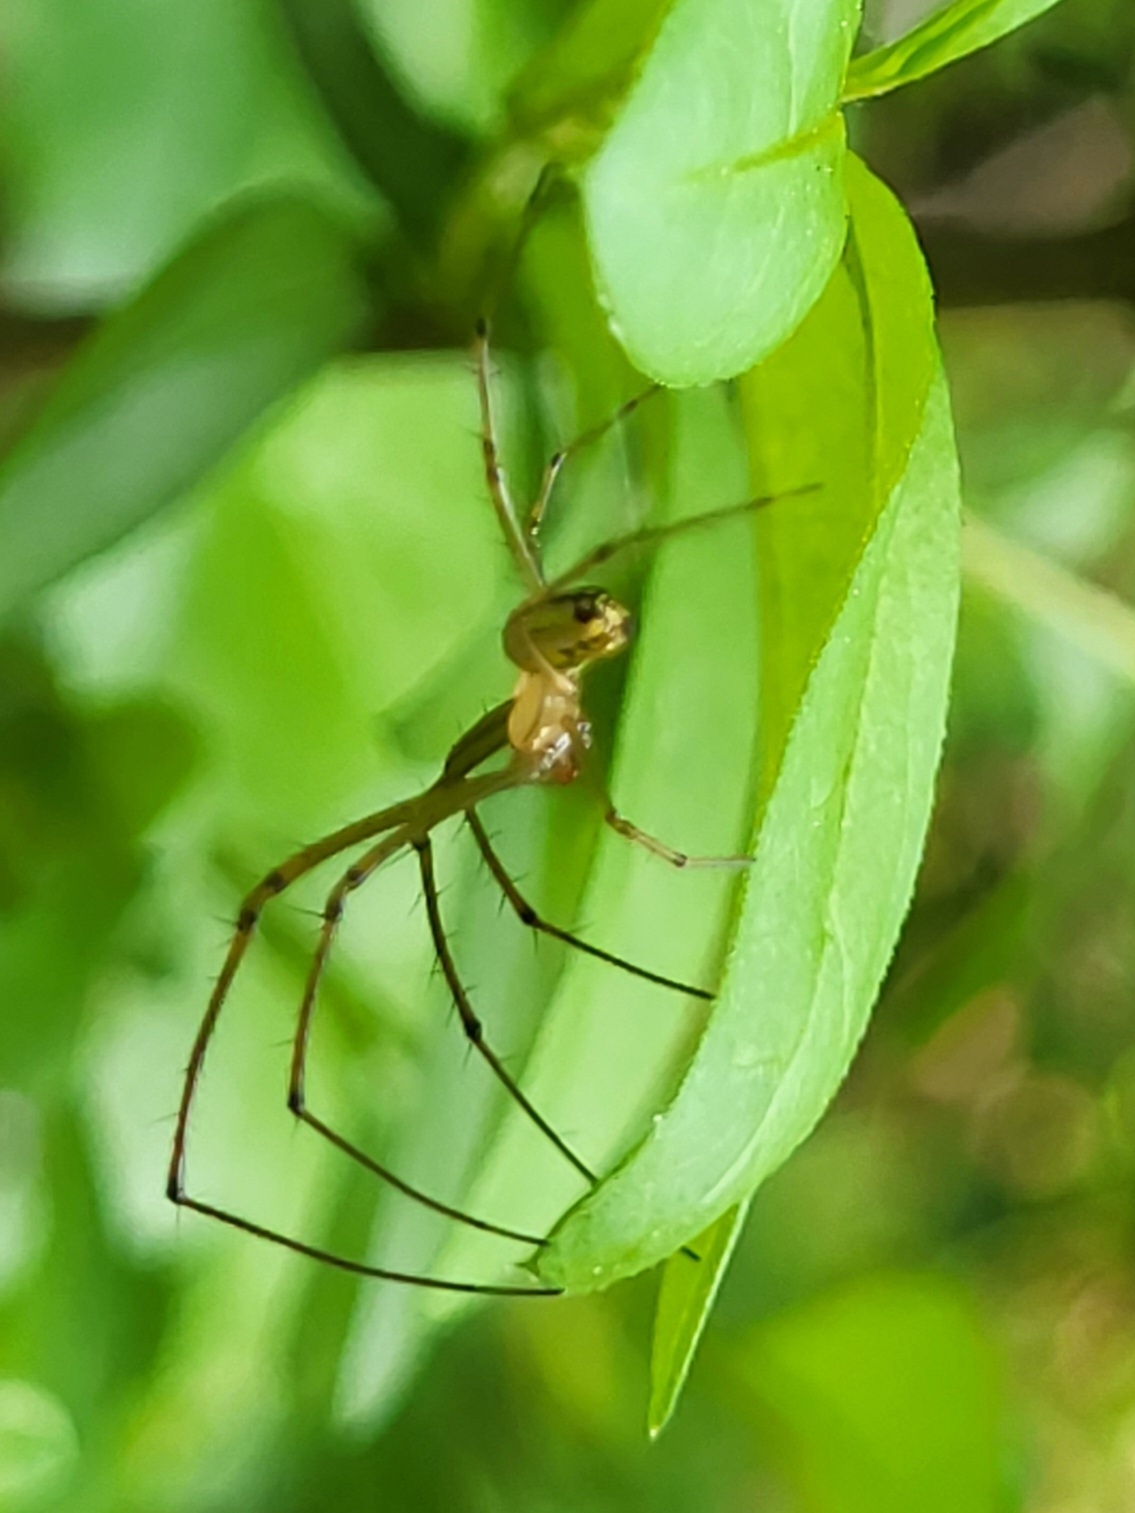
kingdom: Animalia
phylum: Arthropoda
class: Arachnida
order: Araneae
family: Tetragnathidae
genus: Leucauge
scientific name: Leucauge venusta
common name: Longjawed orb weavers
